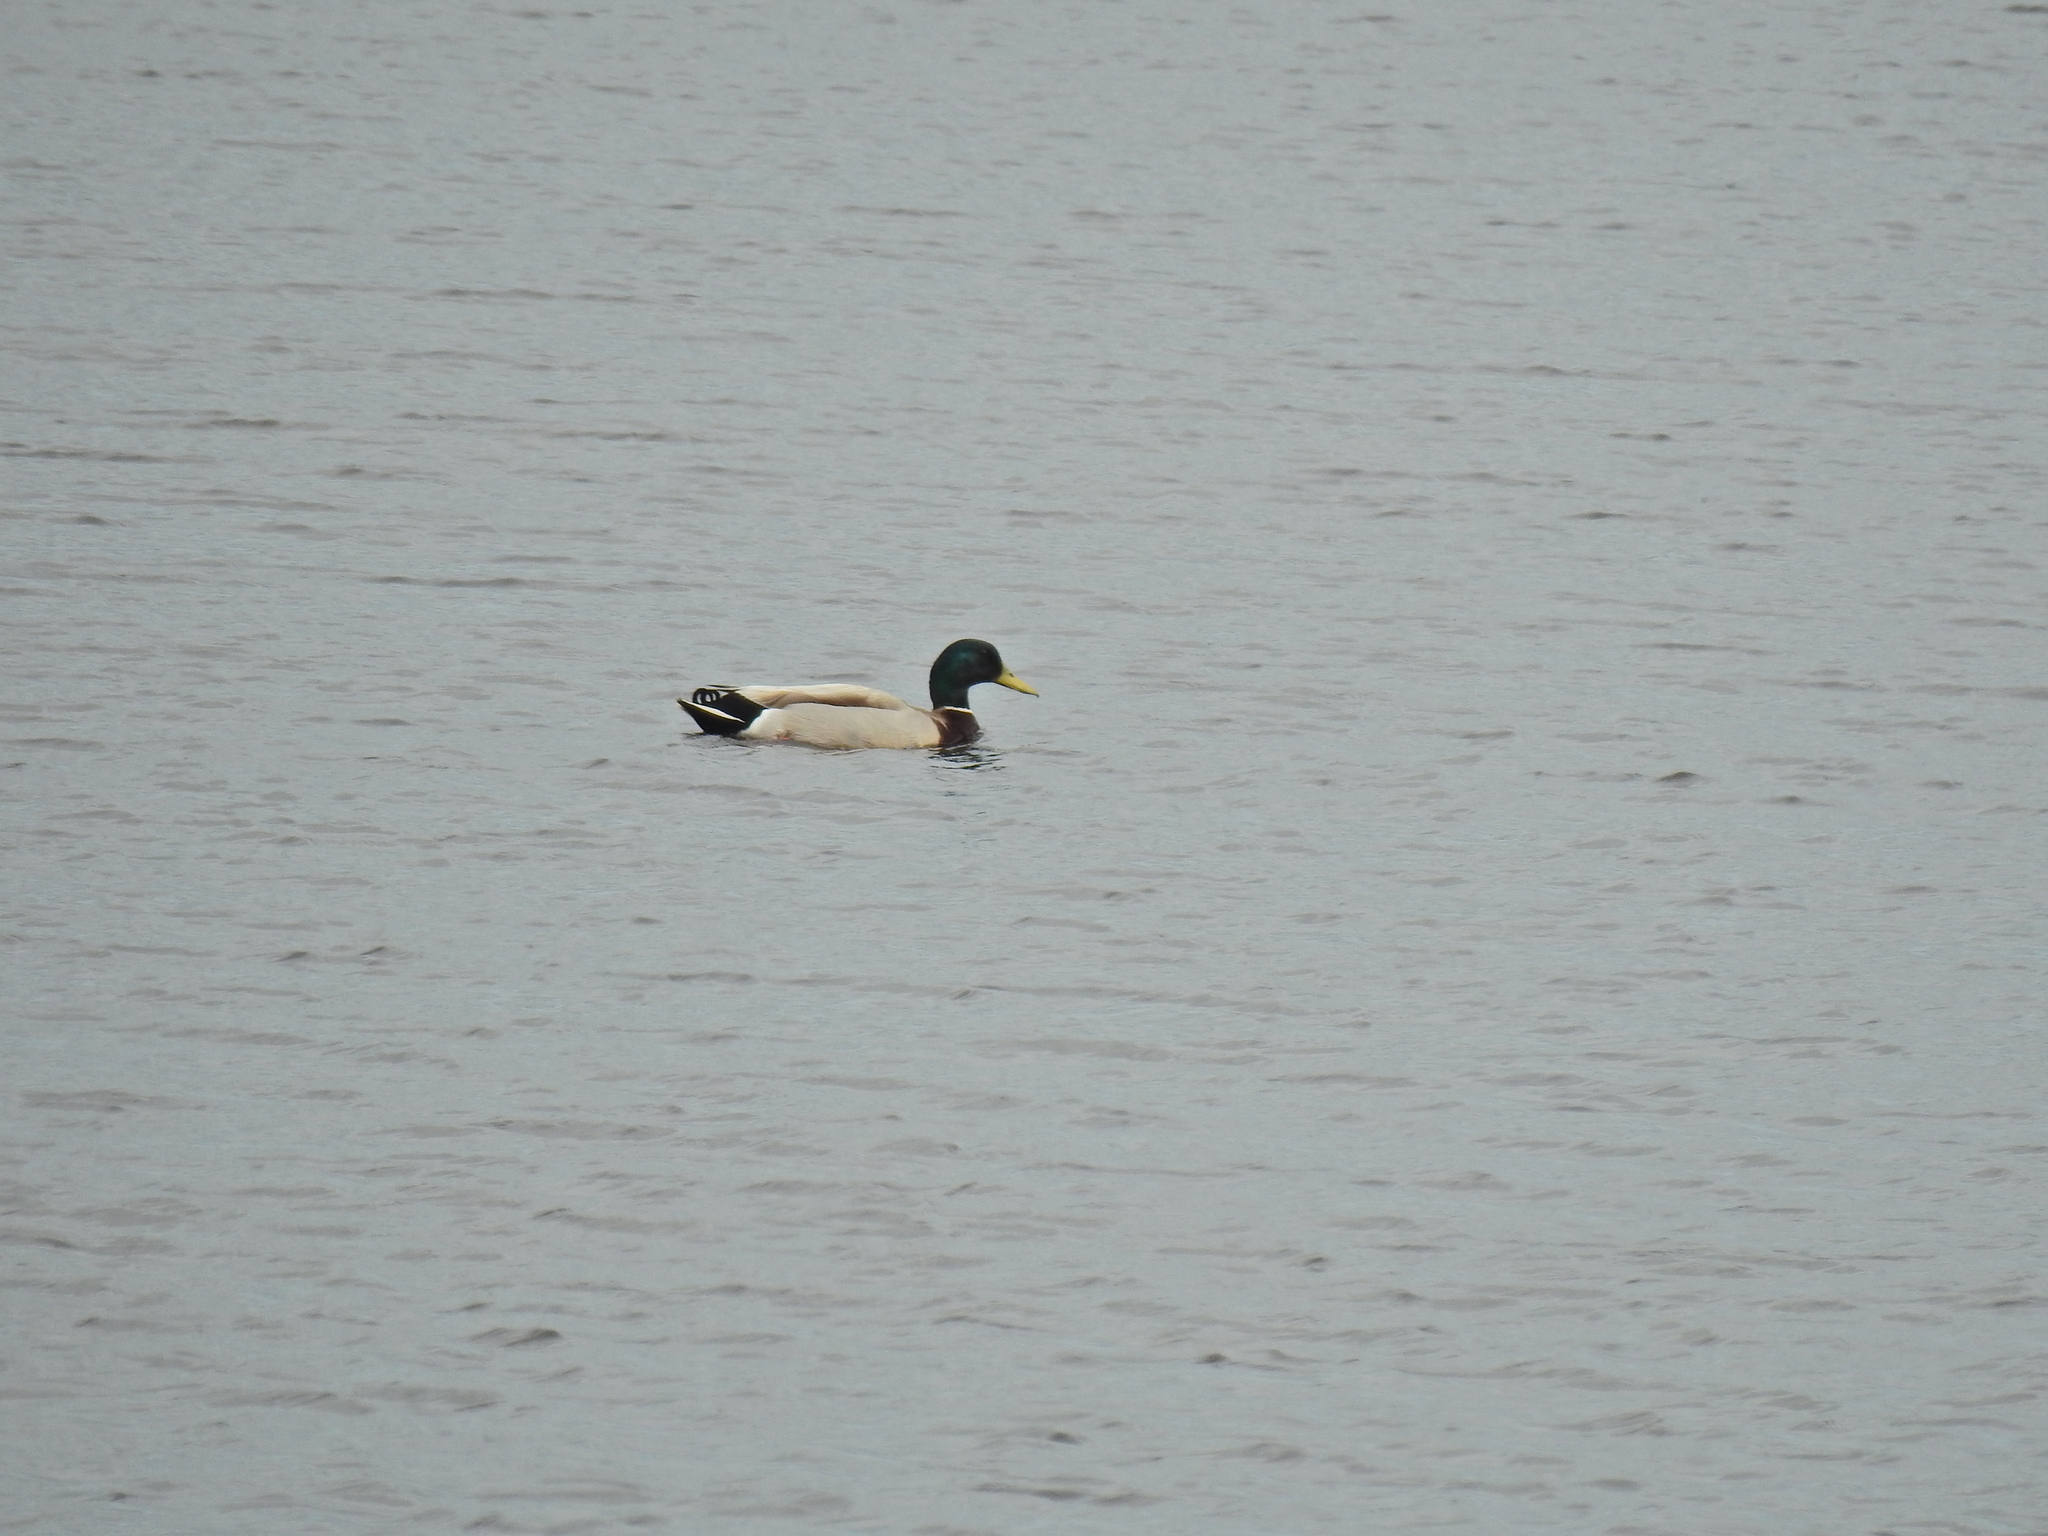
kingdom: Animalia
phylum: Chordata
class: Aves
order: Anseriformes
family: Anatidae
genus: Anas
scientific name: Anas platyrhynchos
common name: Mallard
